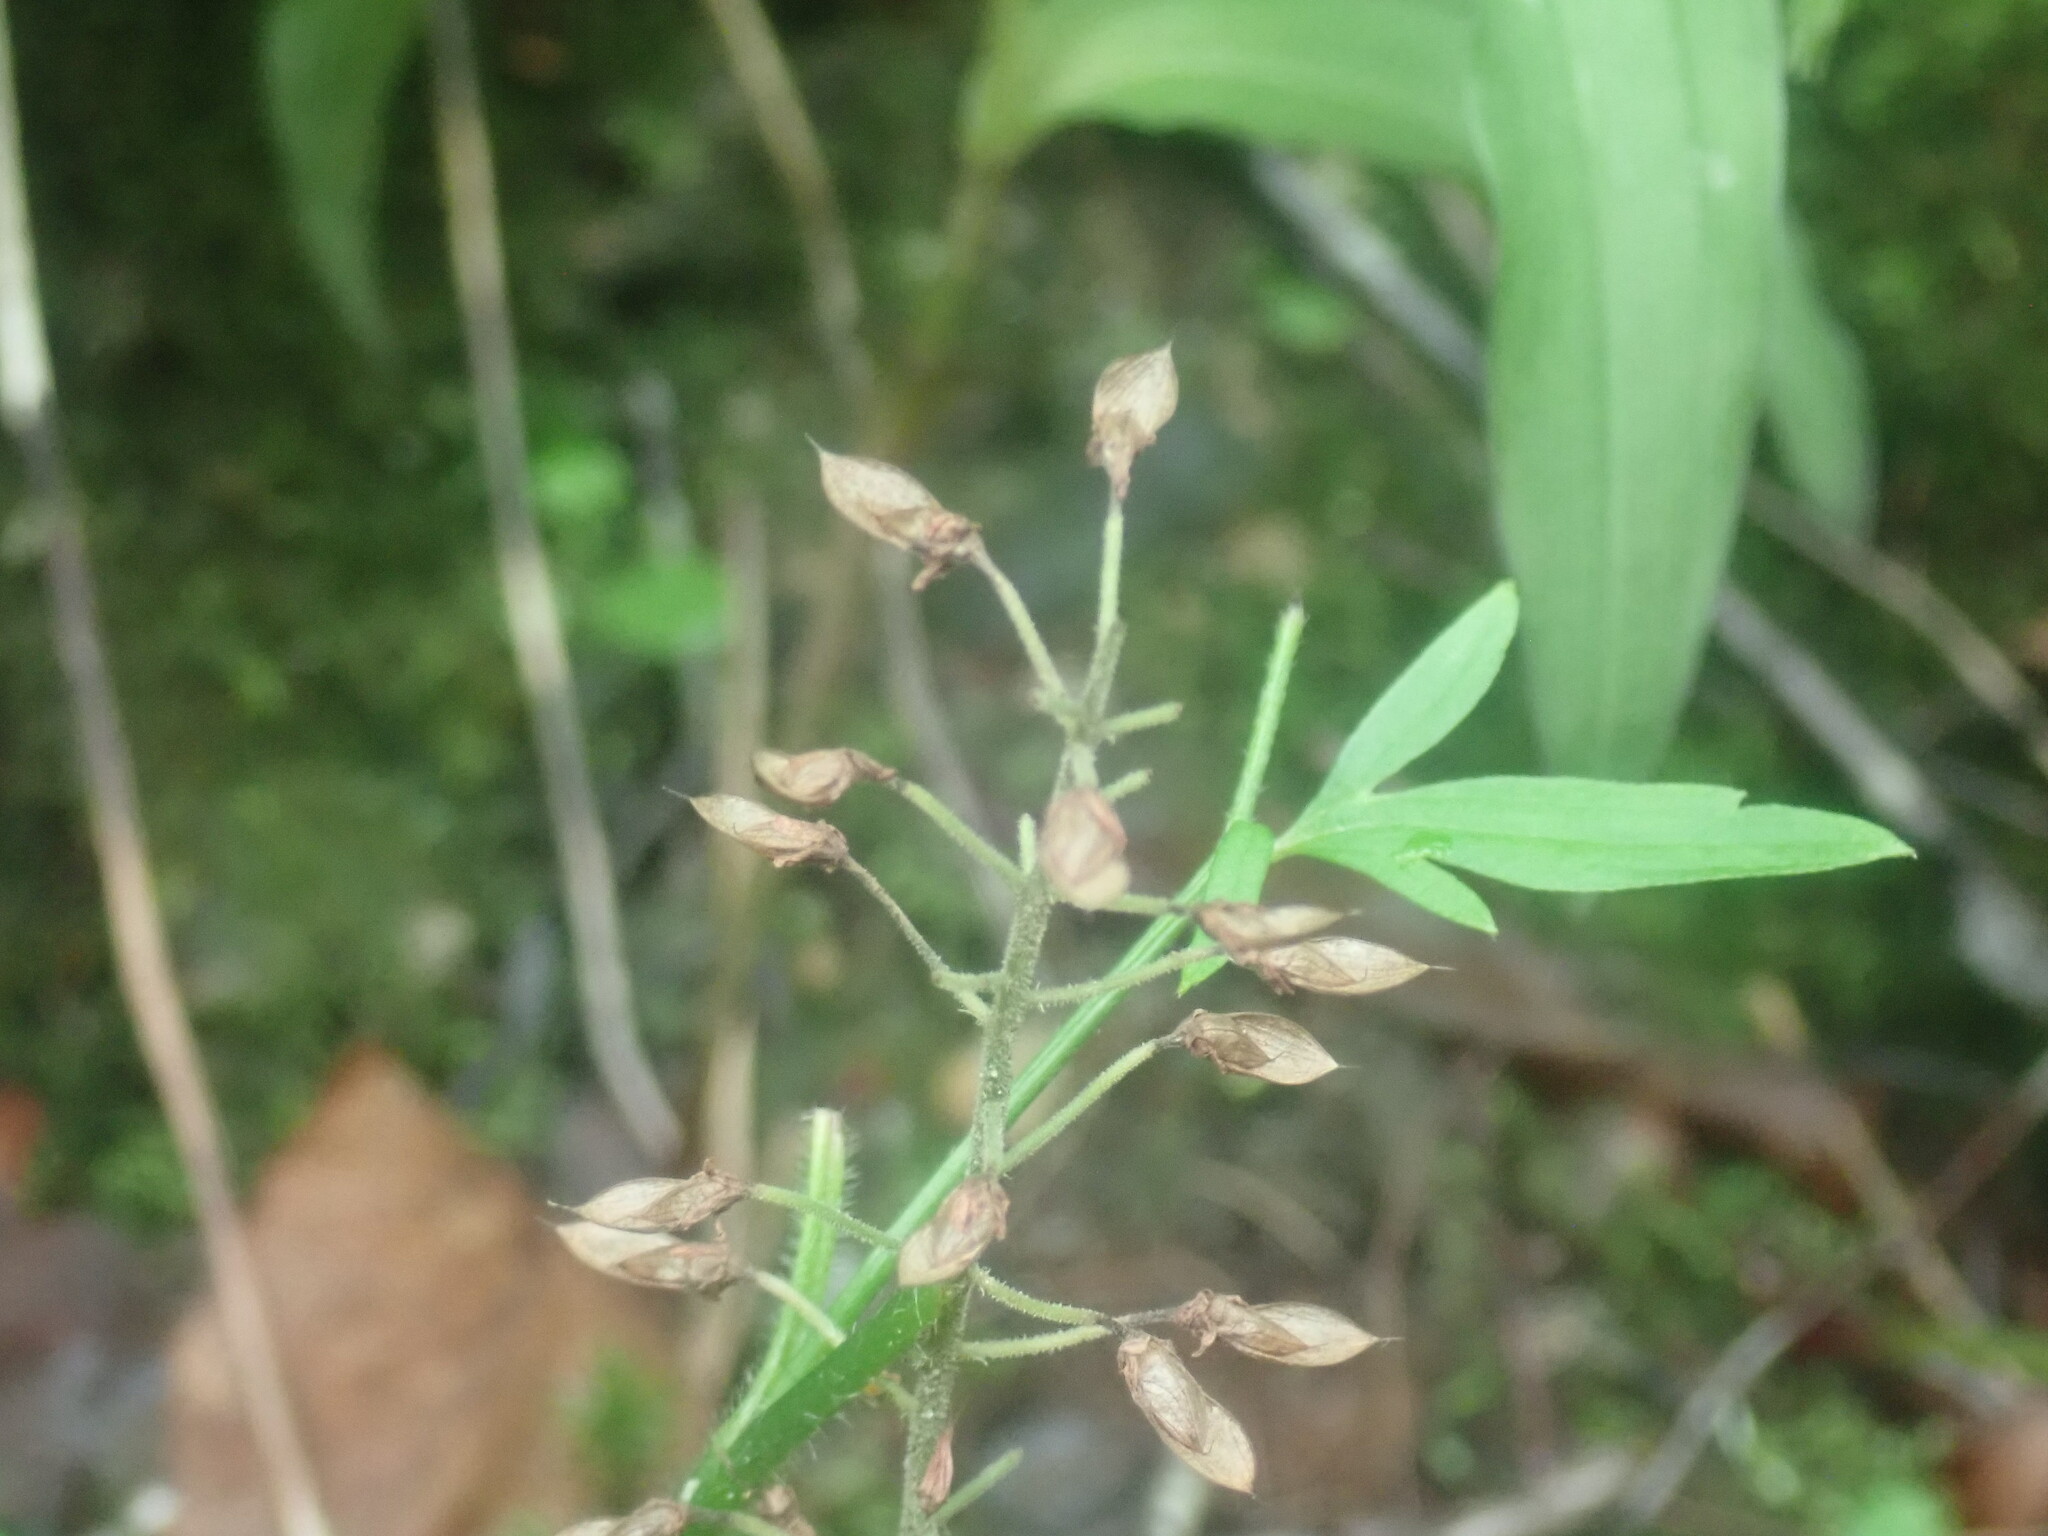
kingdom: Plantae
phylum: Tracheophyta
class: Magnoliopsida
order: Saxifragales
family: Saxifragaceae
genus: Tiarella
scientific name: Tiarella stolonifera
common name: Stoloniferous foamflower
